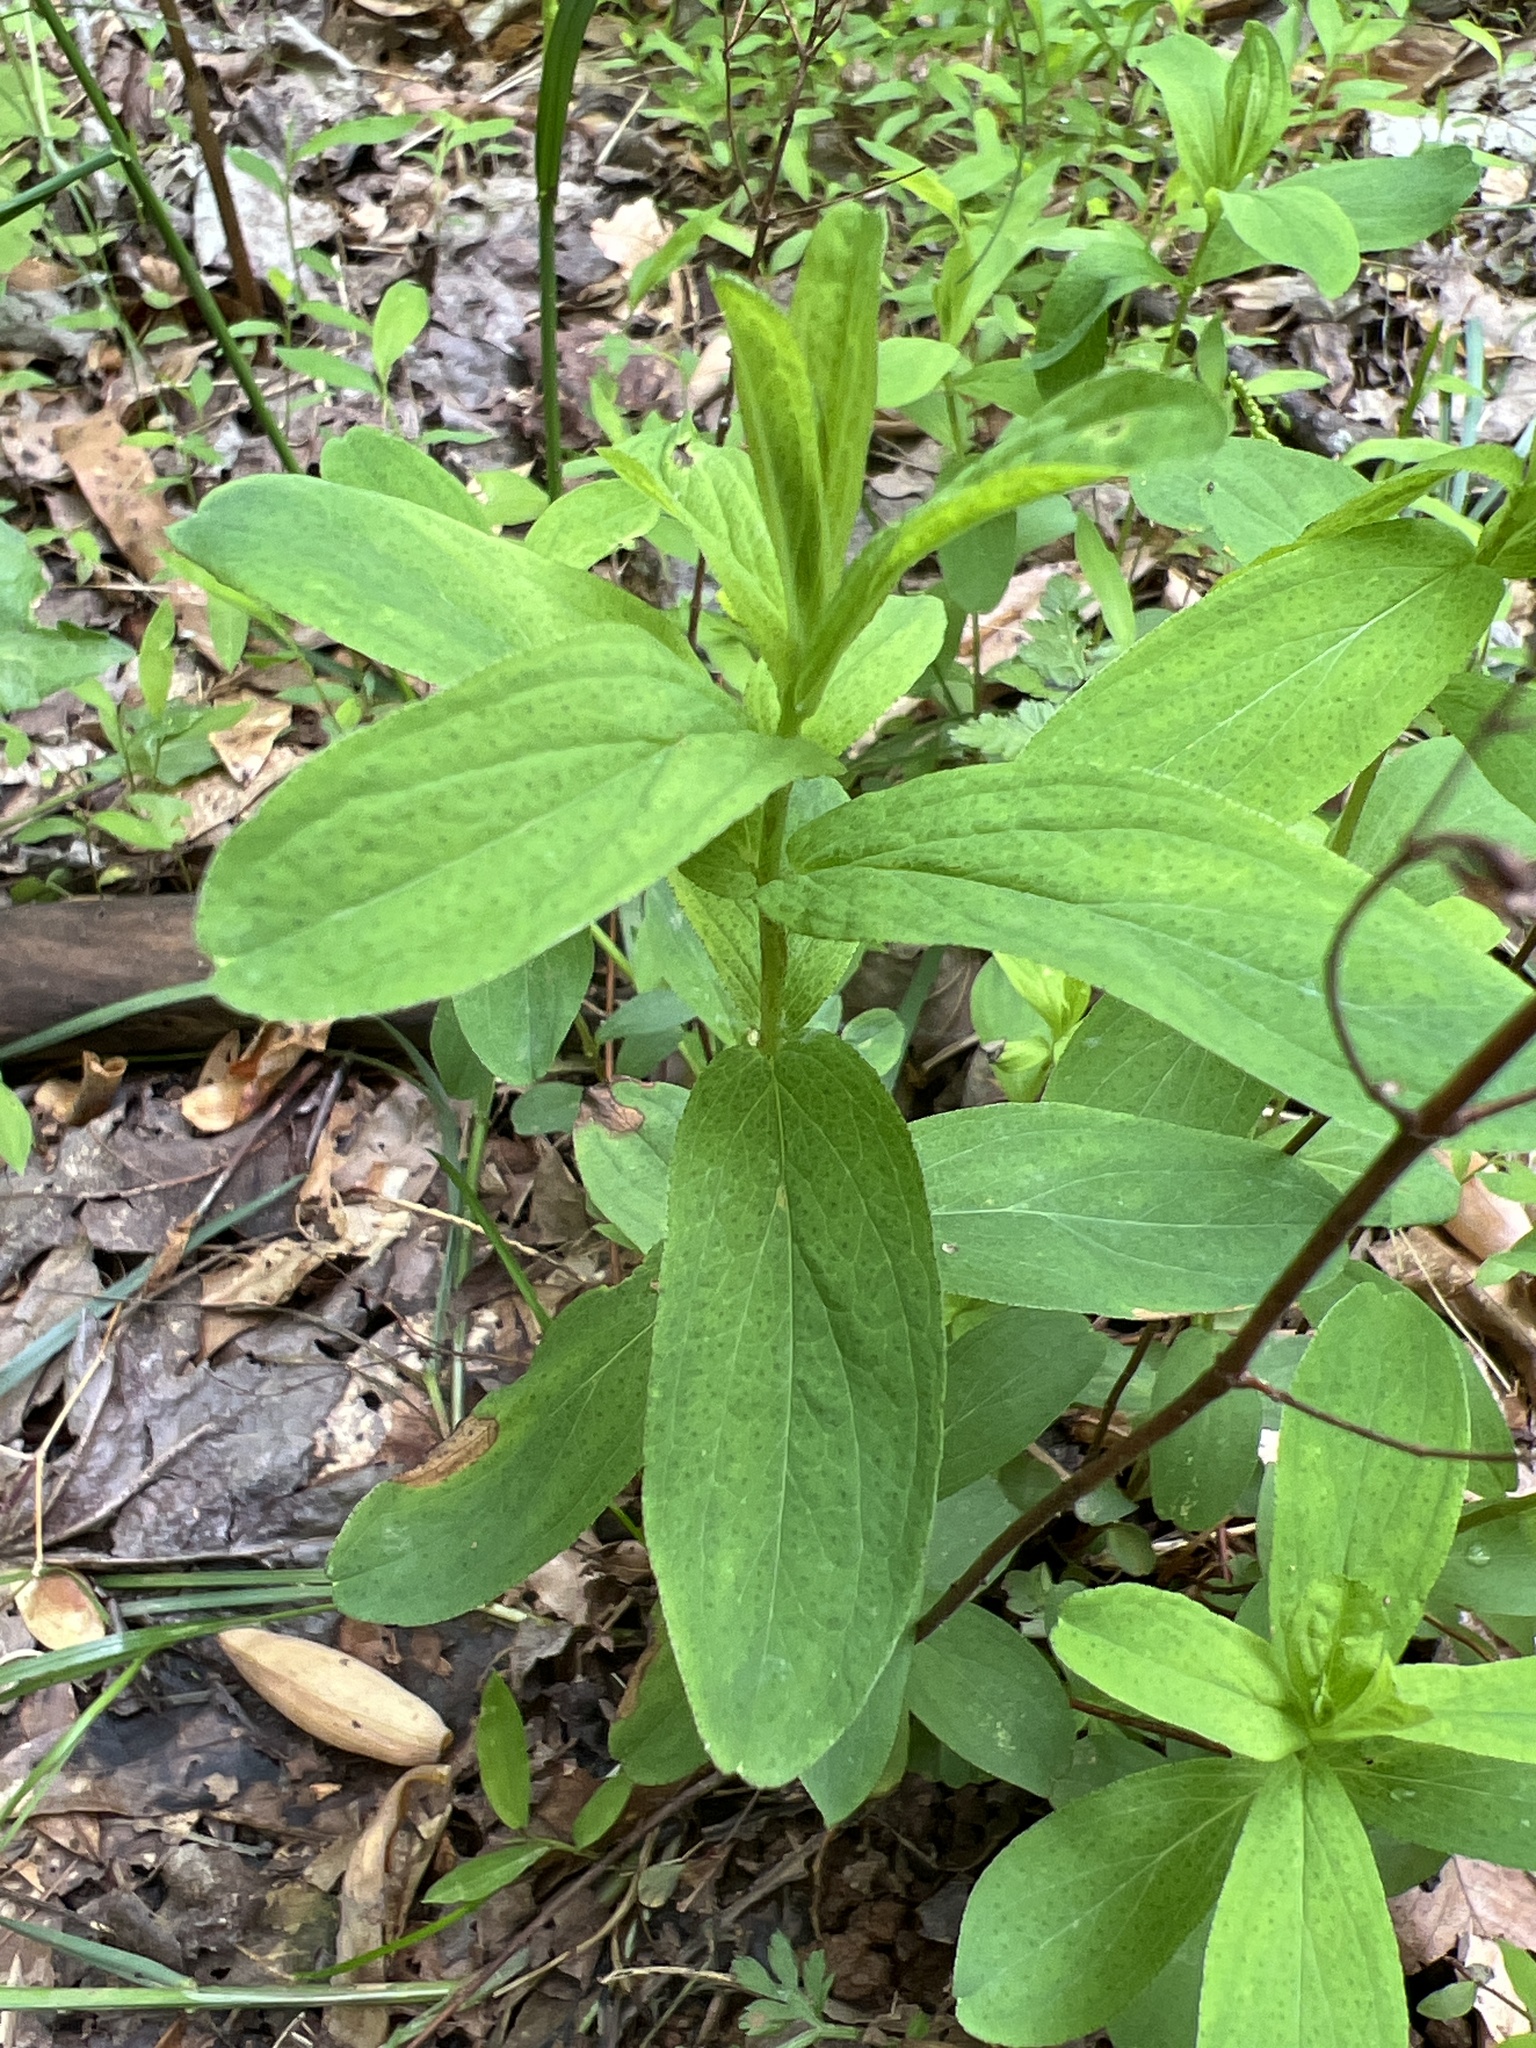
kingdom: Plantae
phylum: Tracheophyta
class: Magnoliopsida
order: Malpighiales
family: Hypericaceae
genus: Hypericum
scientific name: Hypericum punctatum
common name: Spotted st. john's-wort
